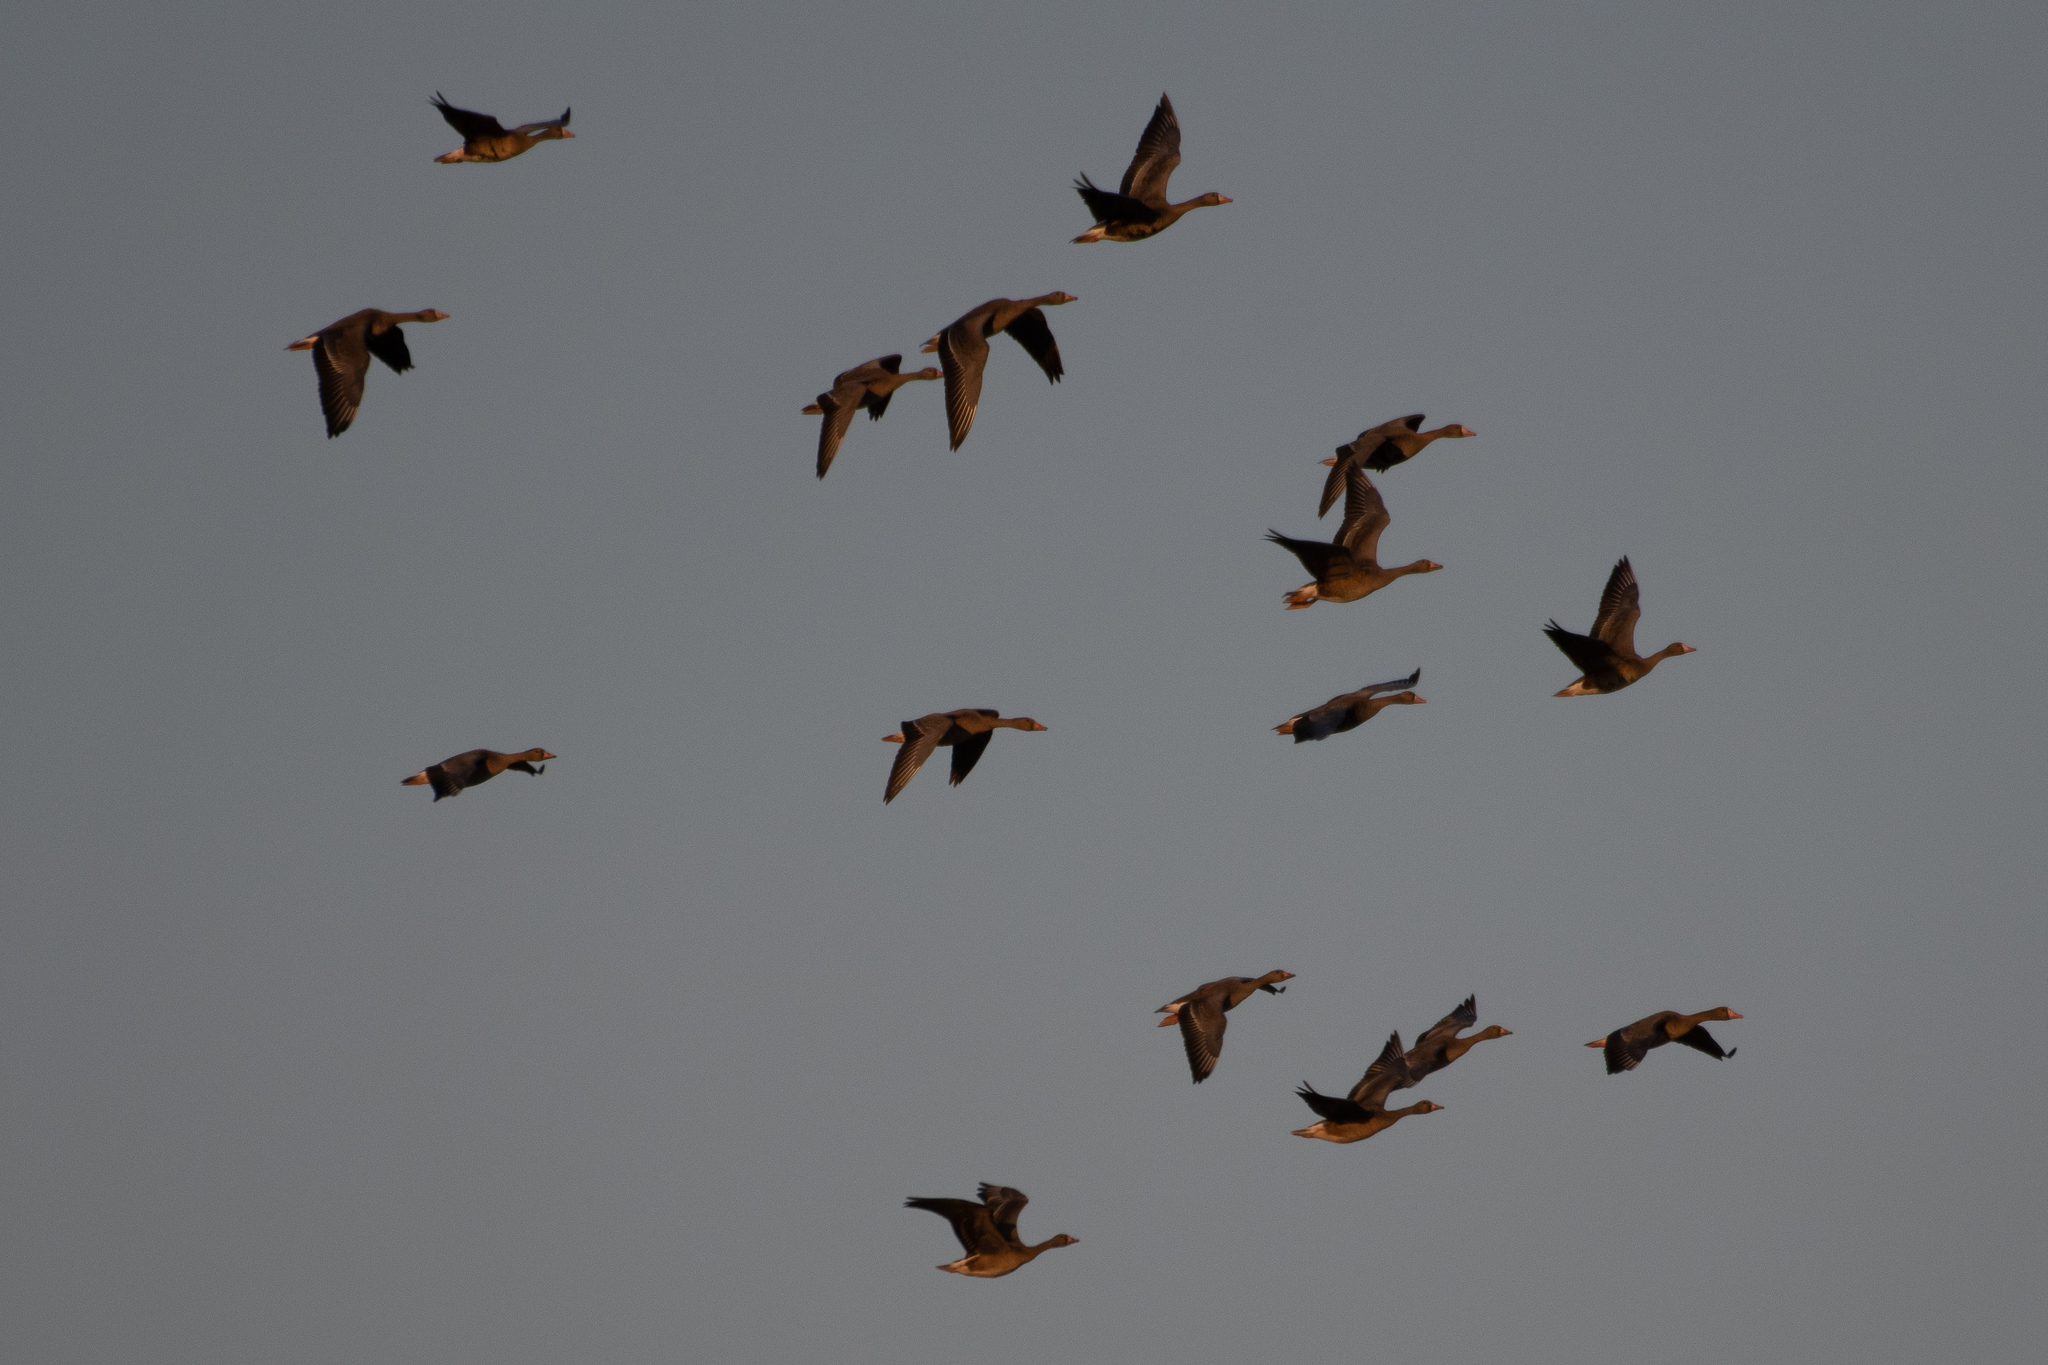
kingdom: Animalia
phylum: Chordata
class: Aves
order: Anseriformes
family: Anatidae
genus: Anser
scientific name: Anser albifrons
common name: Greater white-fronted goose
